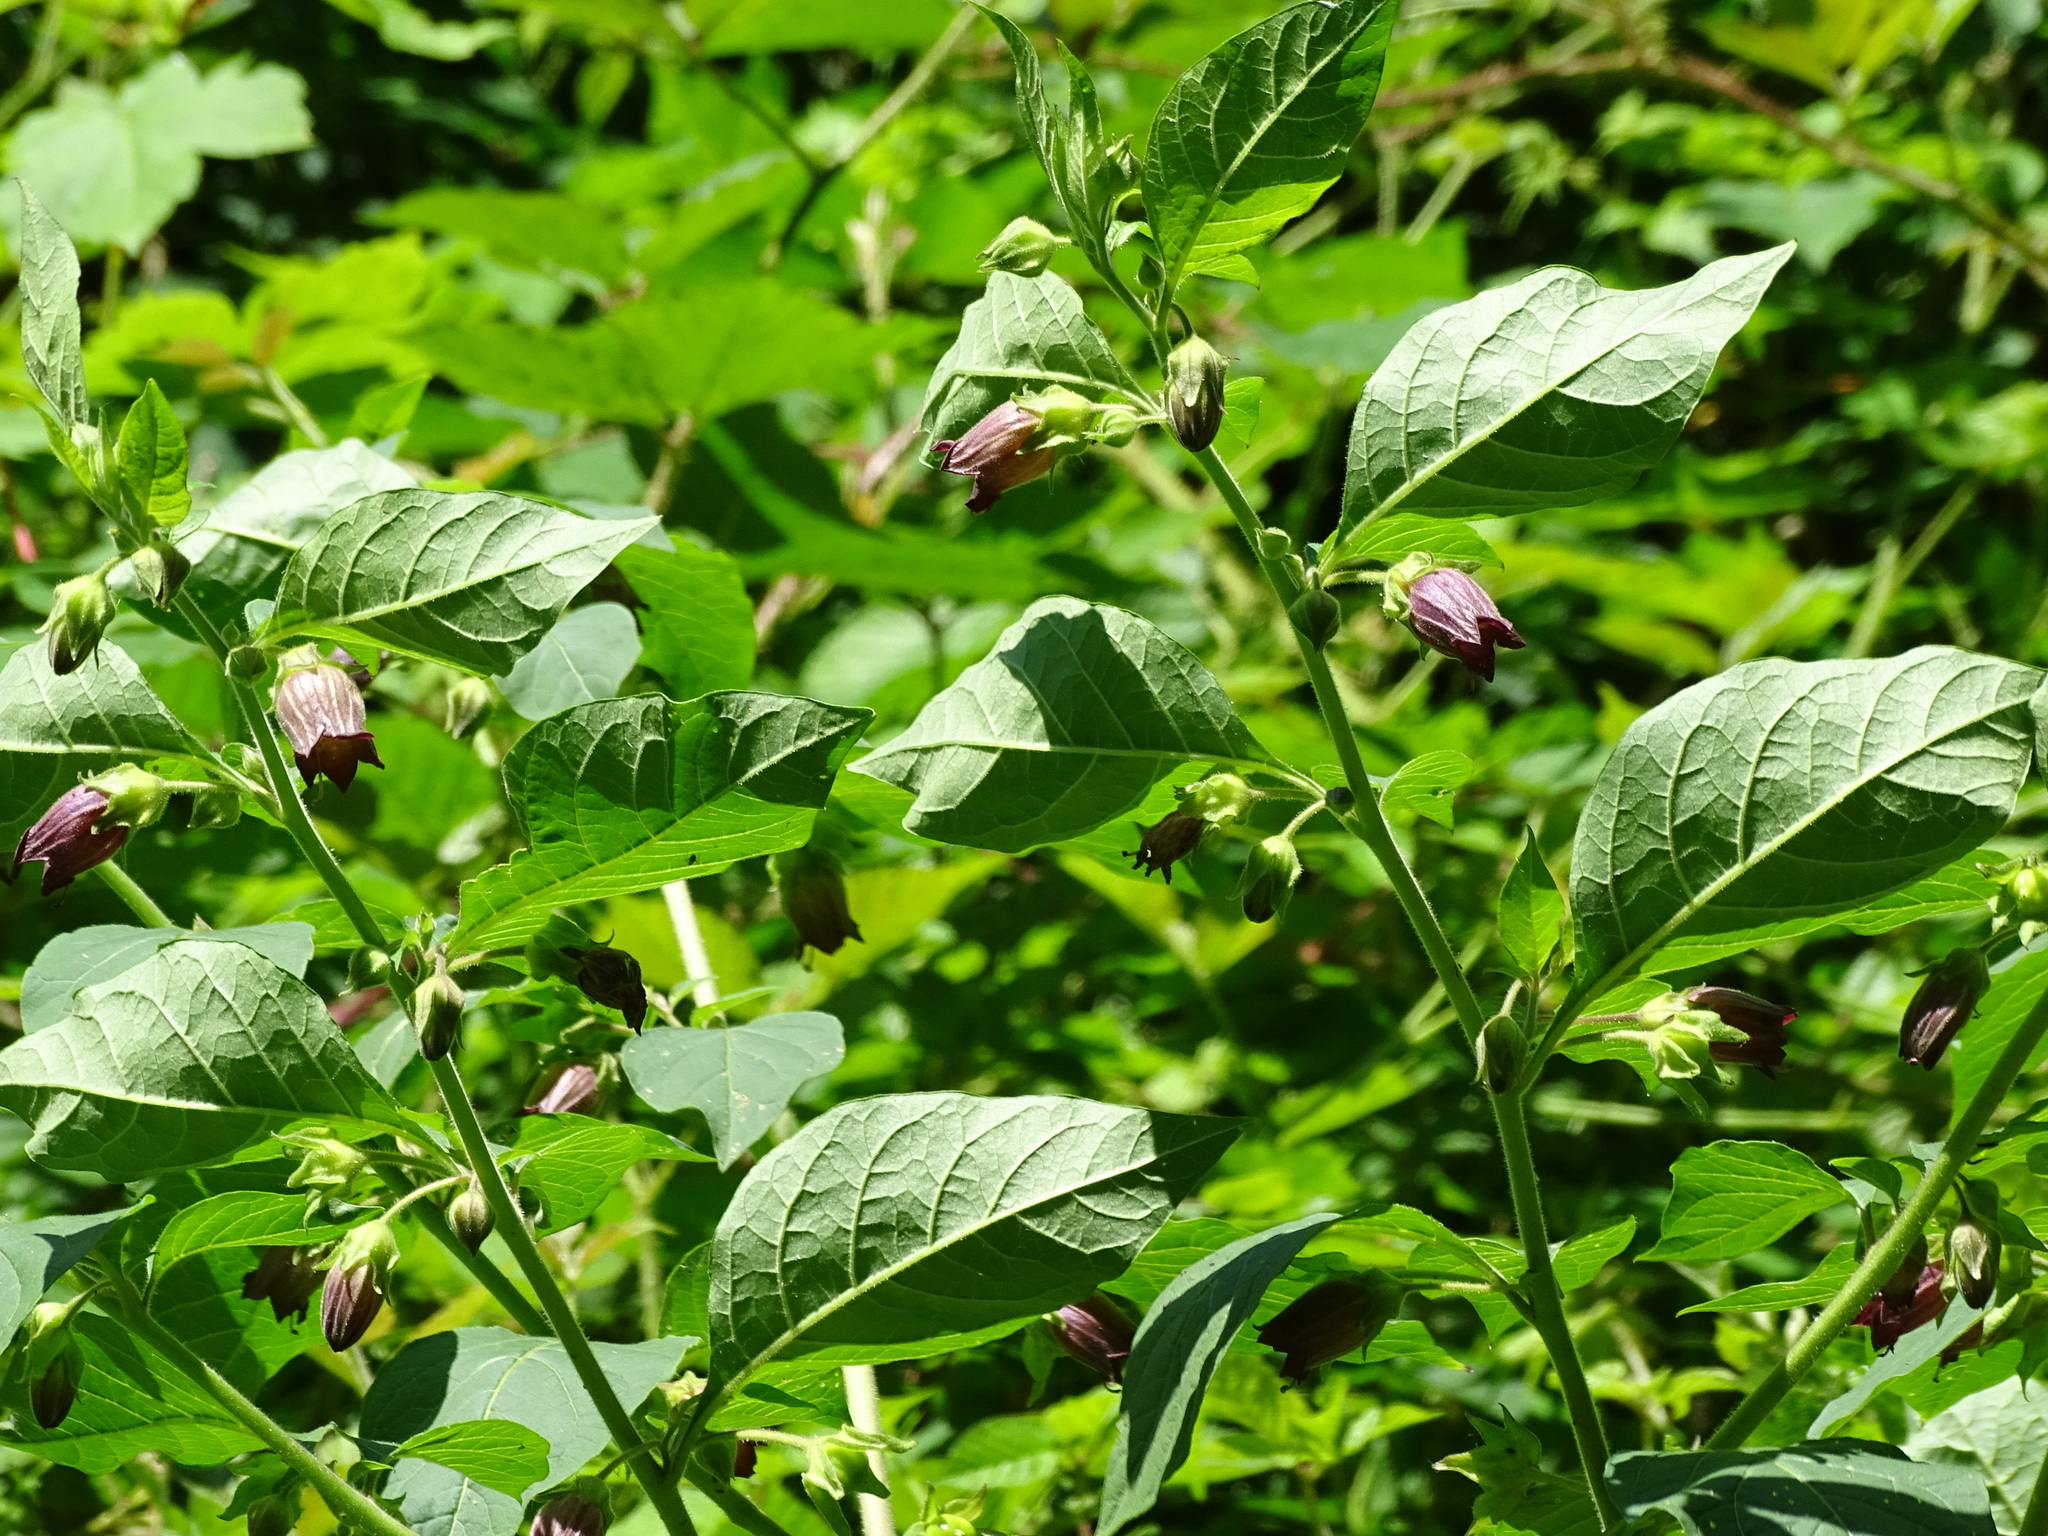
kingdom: Plantae
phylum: Tracheophyta
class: Magnoliopsida
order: Solanales
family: Solanaceae
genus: Atropa
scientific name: Atropa belladonna
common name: Deadly nightshade
